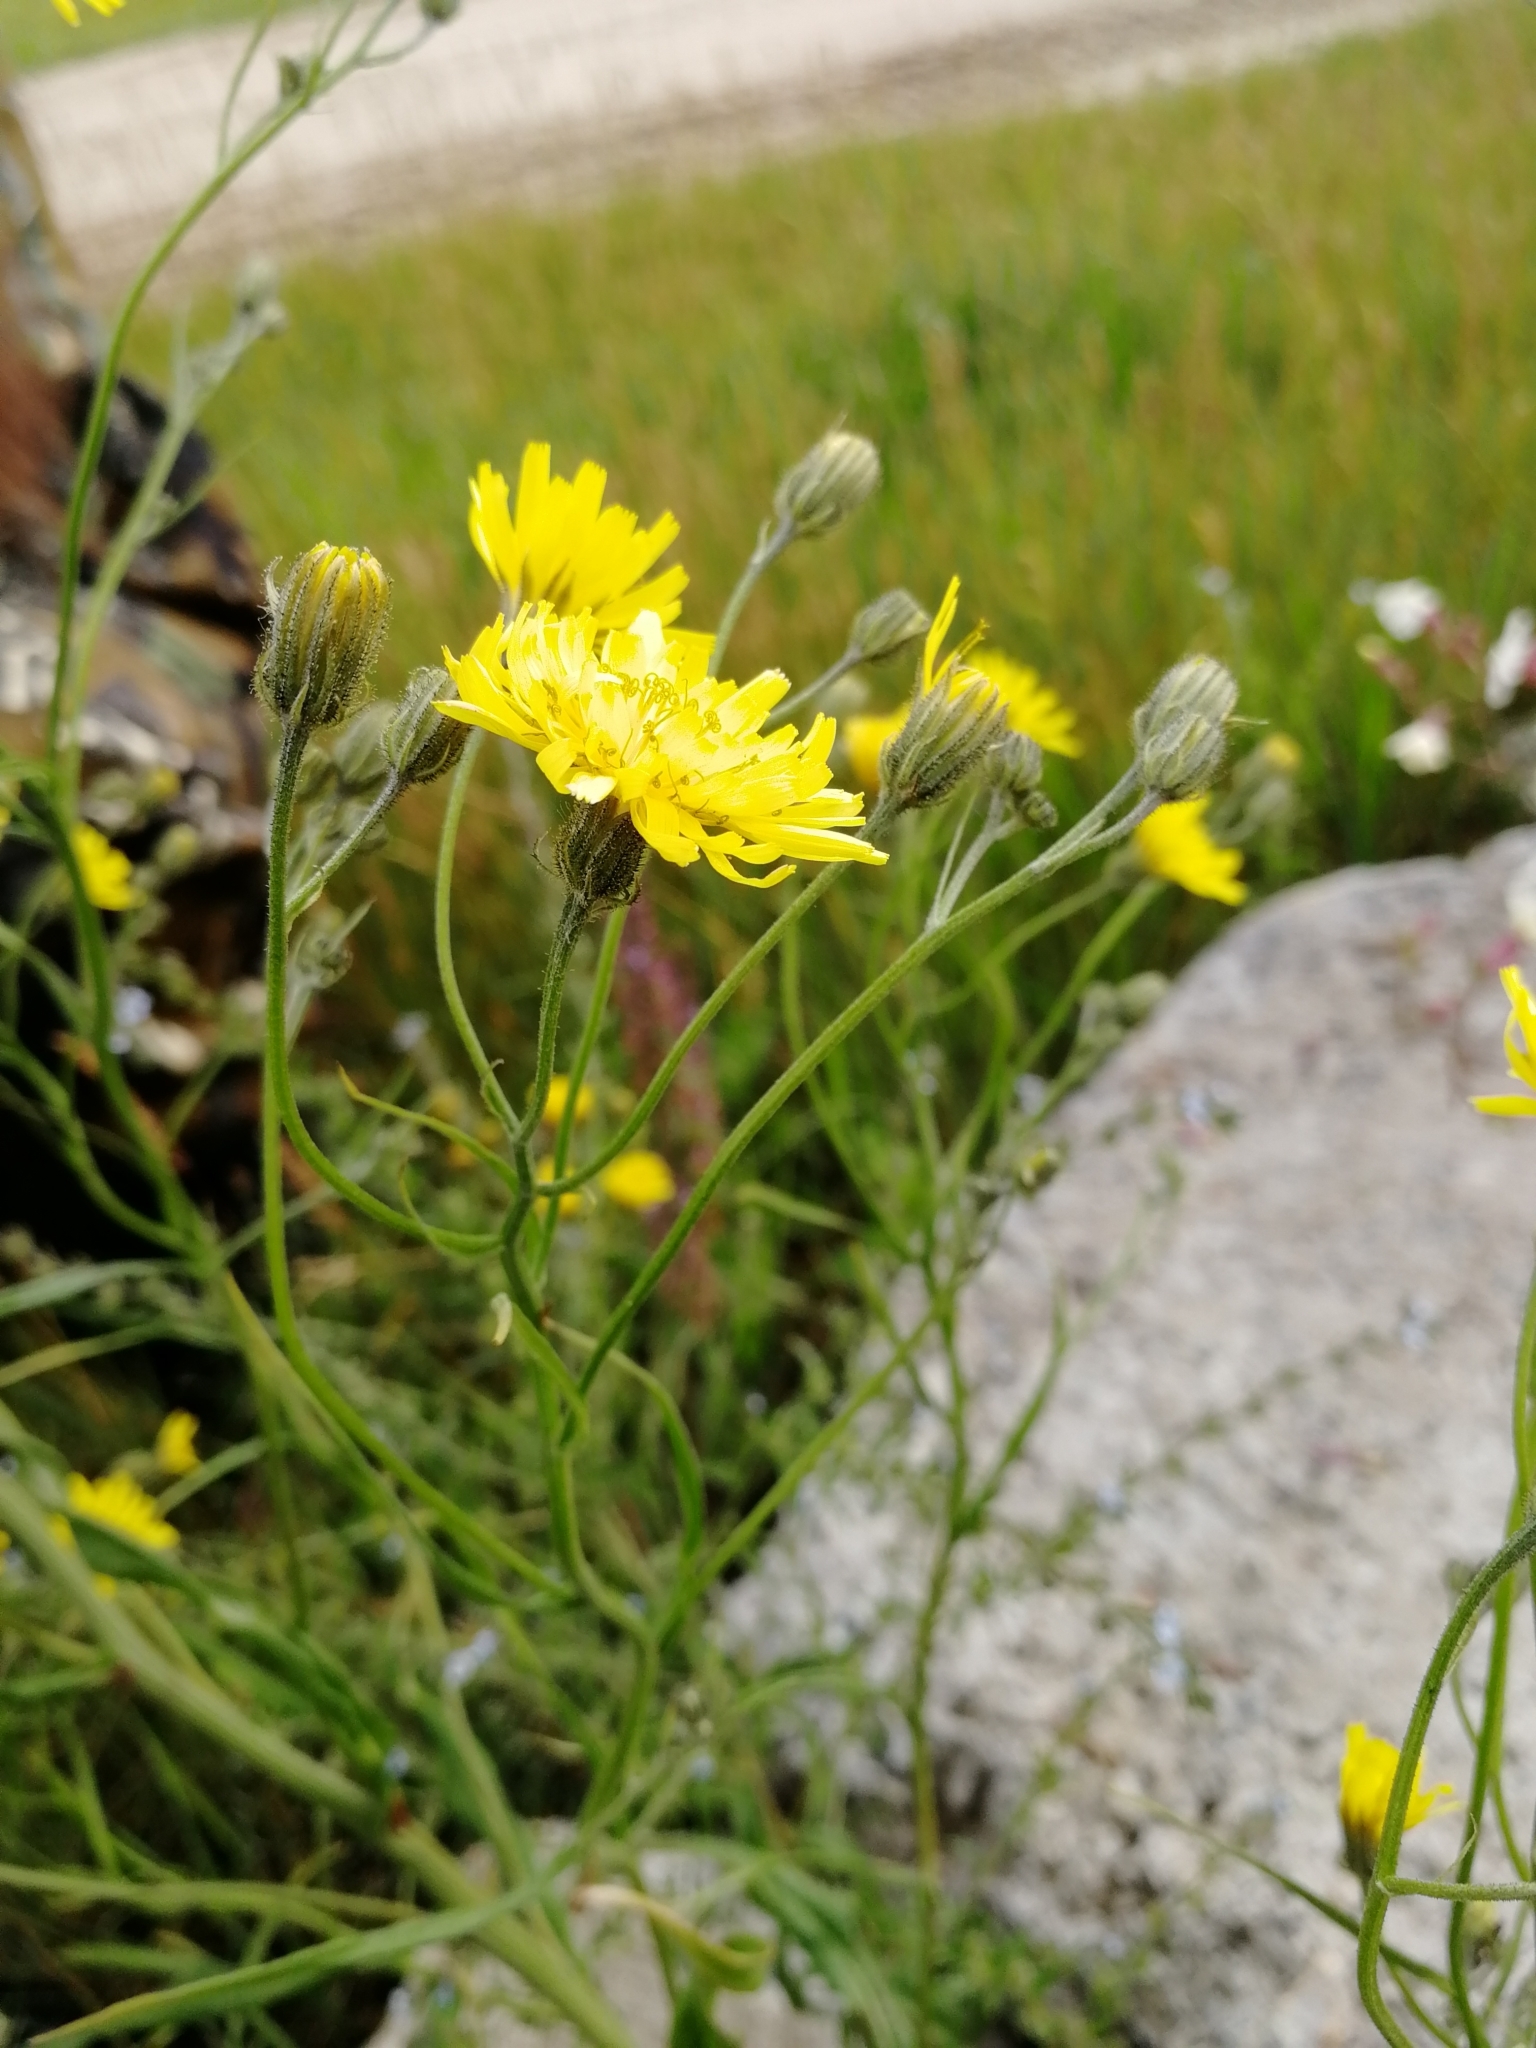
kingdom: Plantae
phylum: Tracheophyta
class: Magnoliopsida
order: Asterales
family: Asteraceae
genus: Crepis
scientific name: Crepis tectorum
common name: Narrow-leaved hawk's-beard
